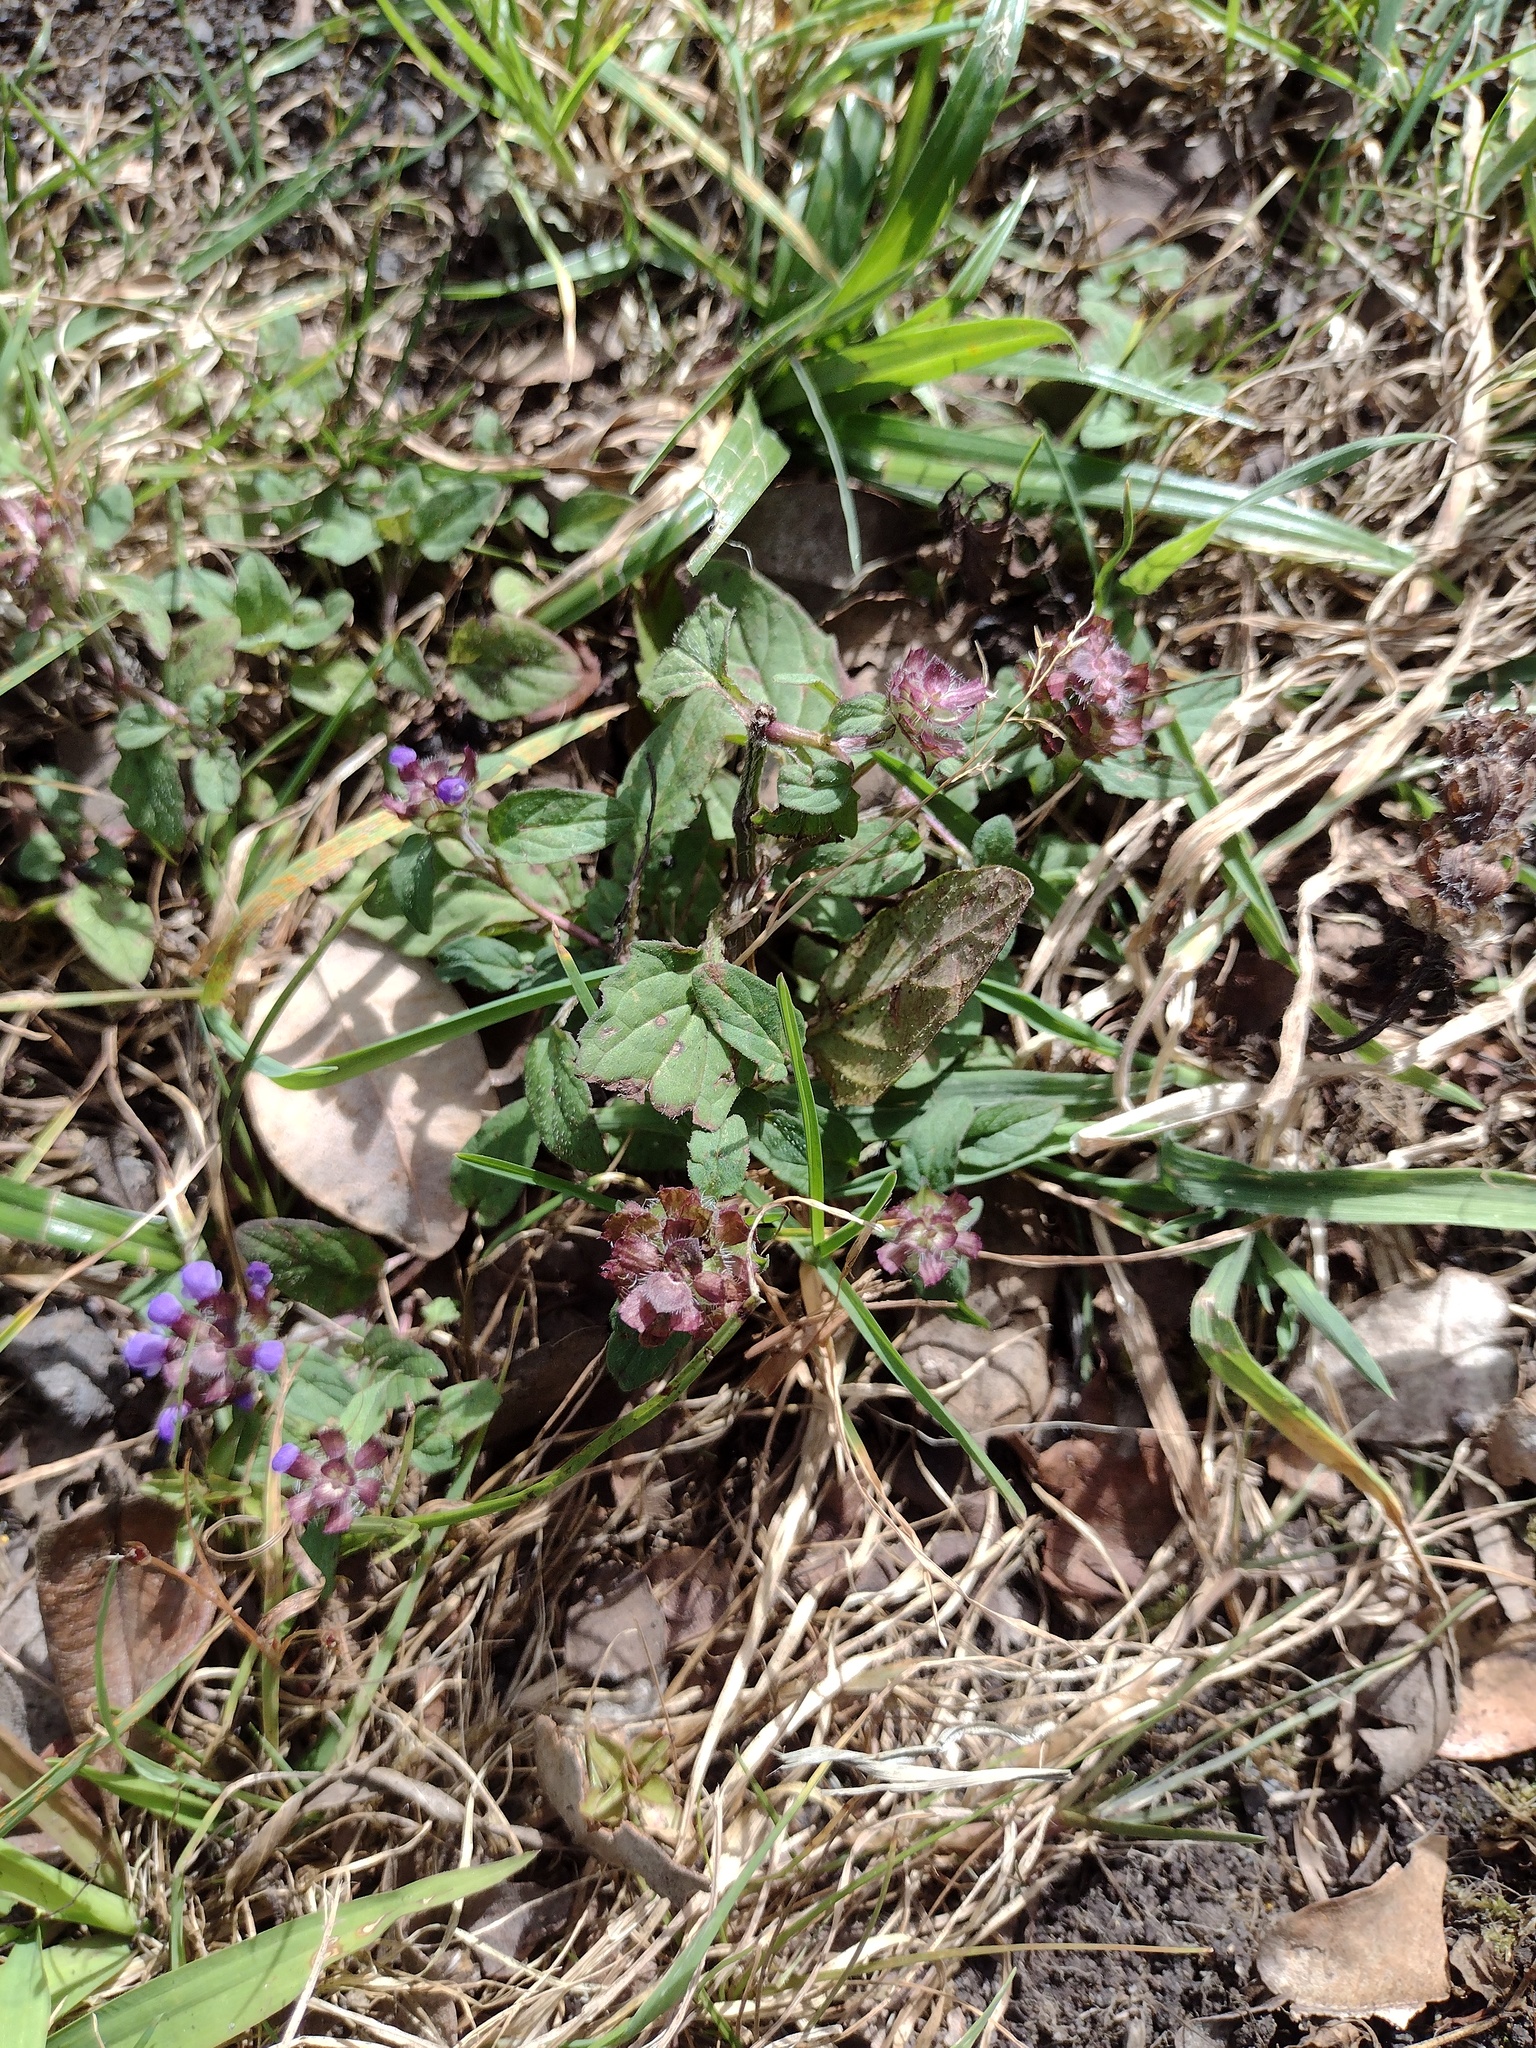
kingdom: Plantae
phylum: Tracheophyta
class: Magnoliopsida
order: Lamiales
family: Lamiaceae
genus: Prunella
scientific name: Prunella vulgaris
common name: Heal-all
